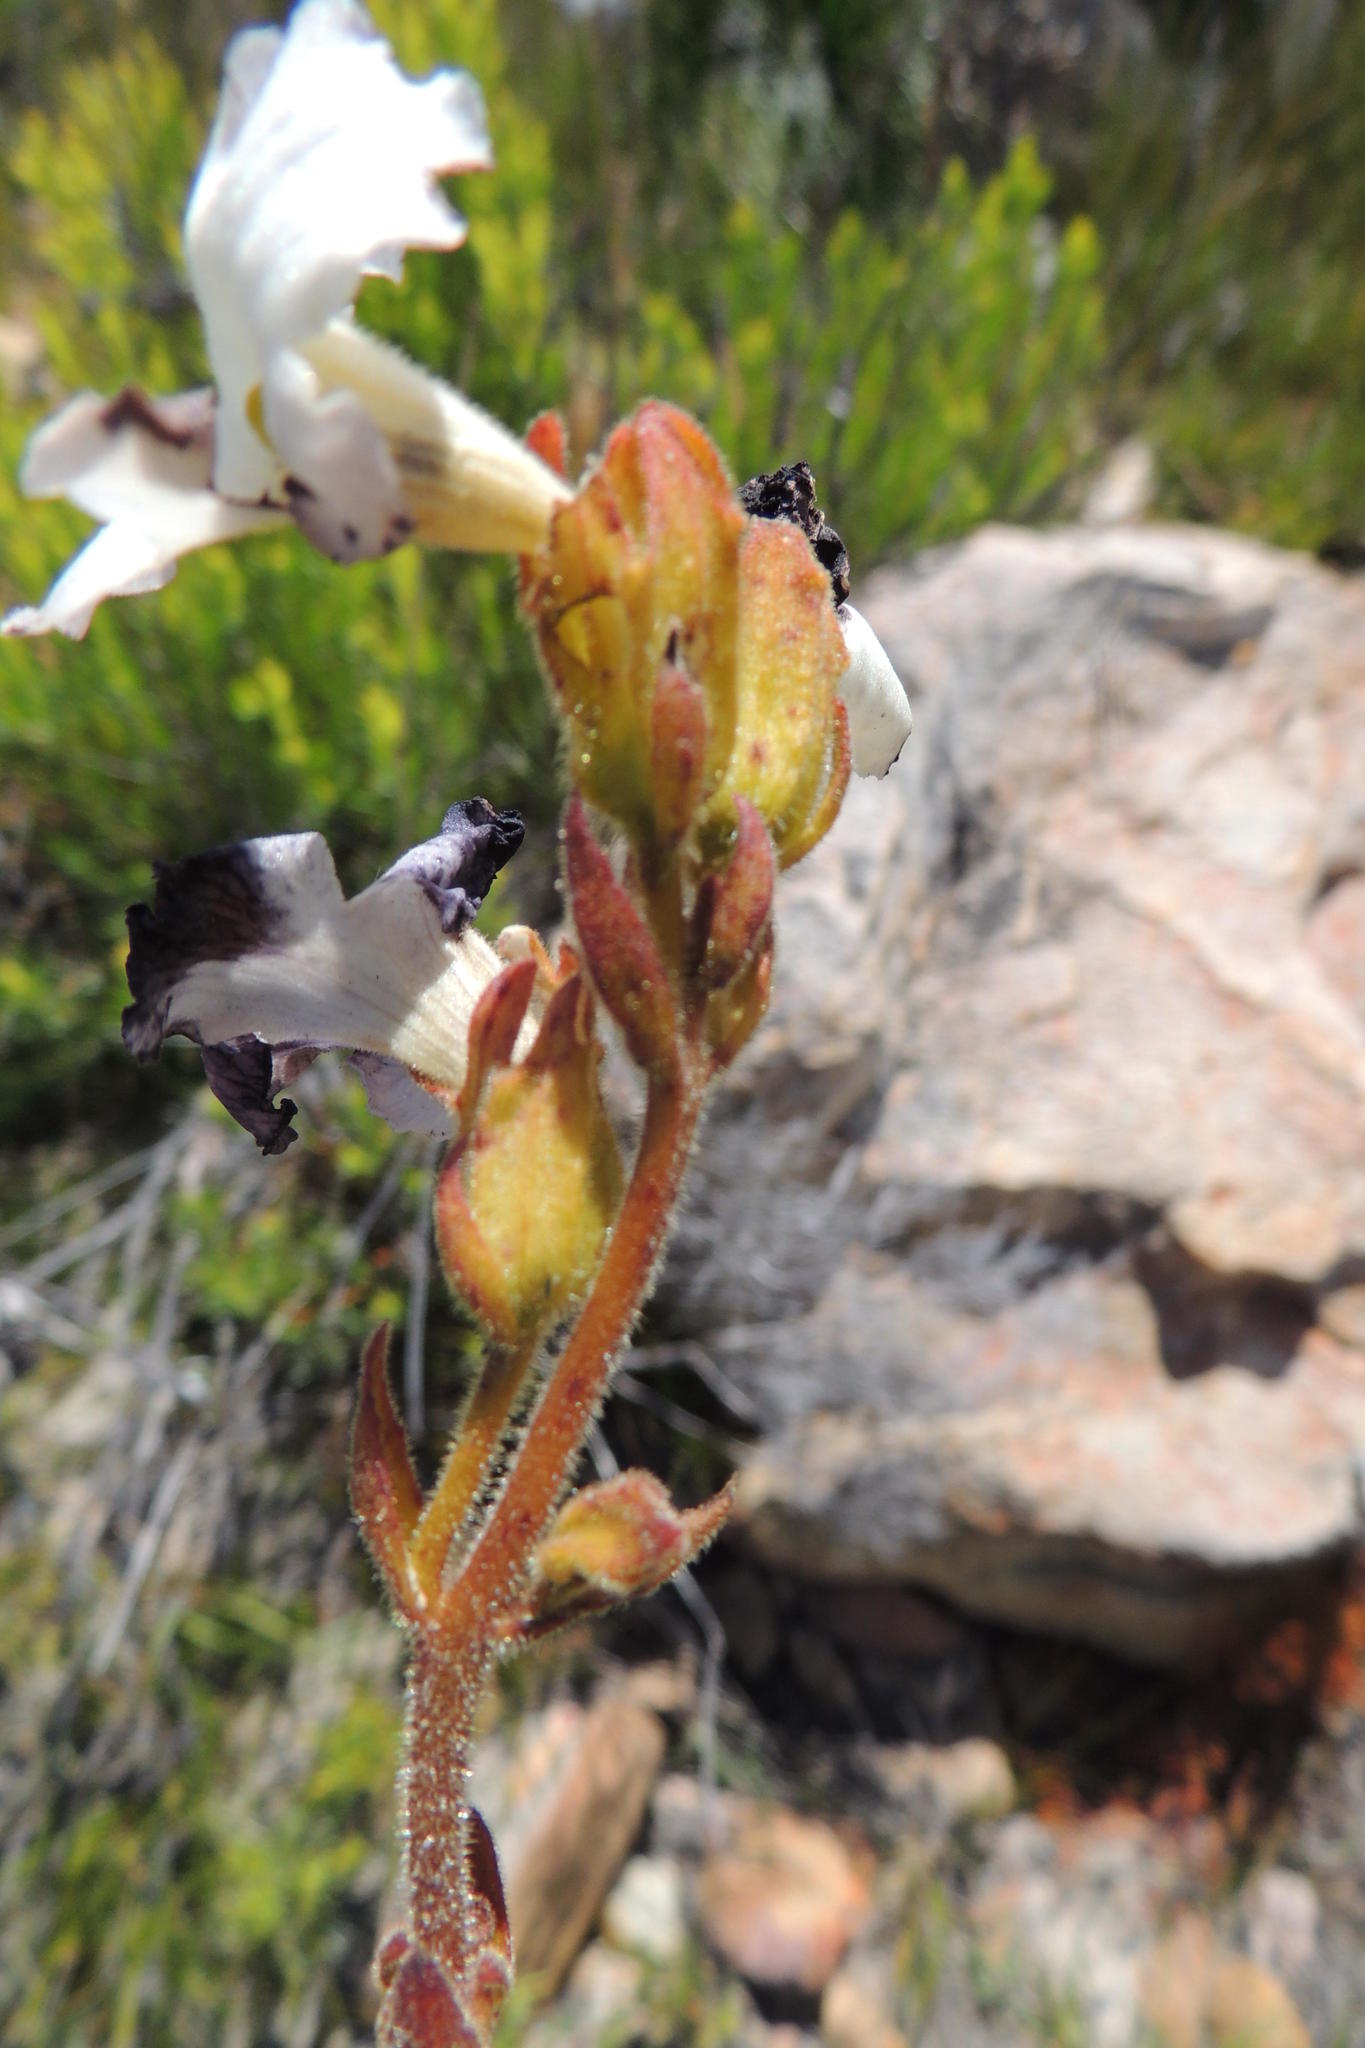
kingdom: Plantae
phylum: Tracheophyta
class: Magnoliopsida
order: Lamiales
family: Orobanchaceae
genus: Harveya
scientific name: Harveya capensis
